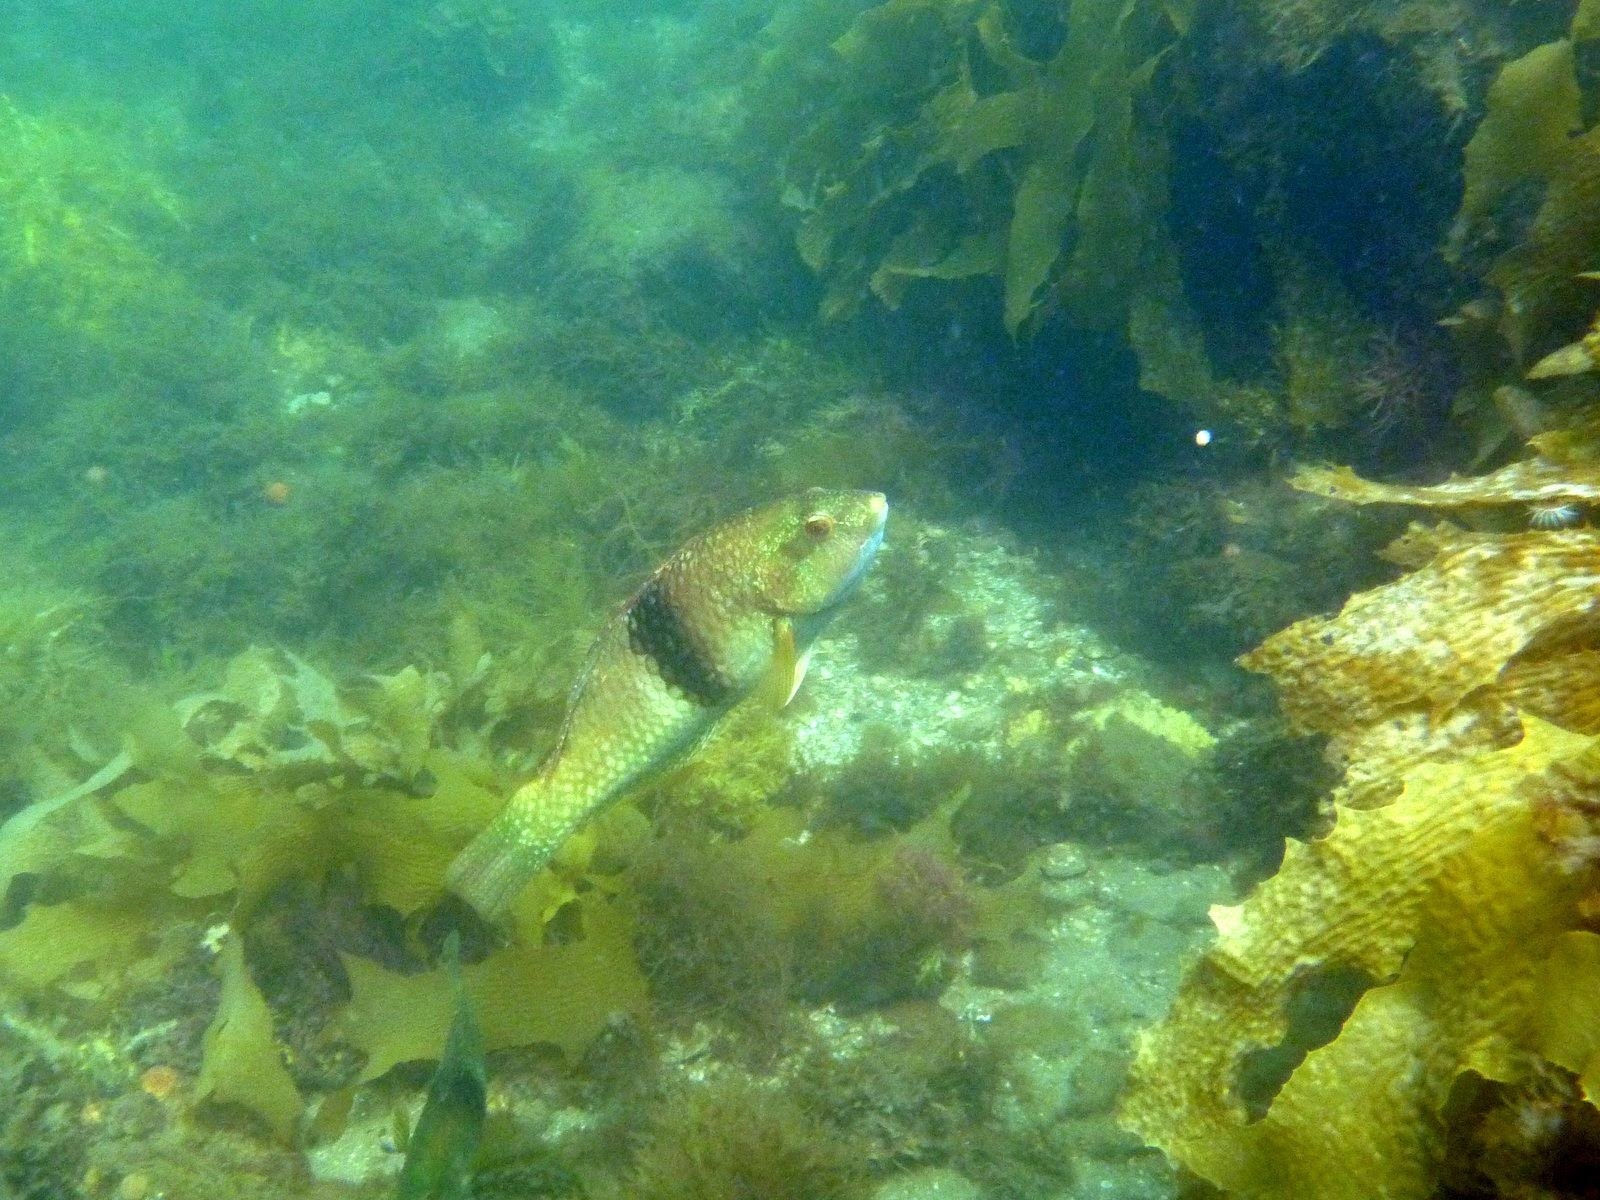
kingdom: Animalia
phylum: Chordata
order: Perciformes
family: Labridae
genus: Notolabrus
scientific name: Notolabrus tetricus
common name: Blue-throated parrotfish
